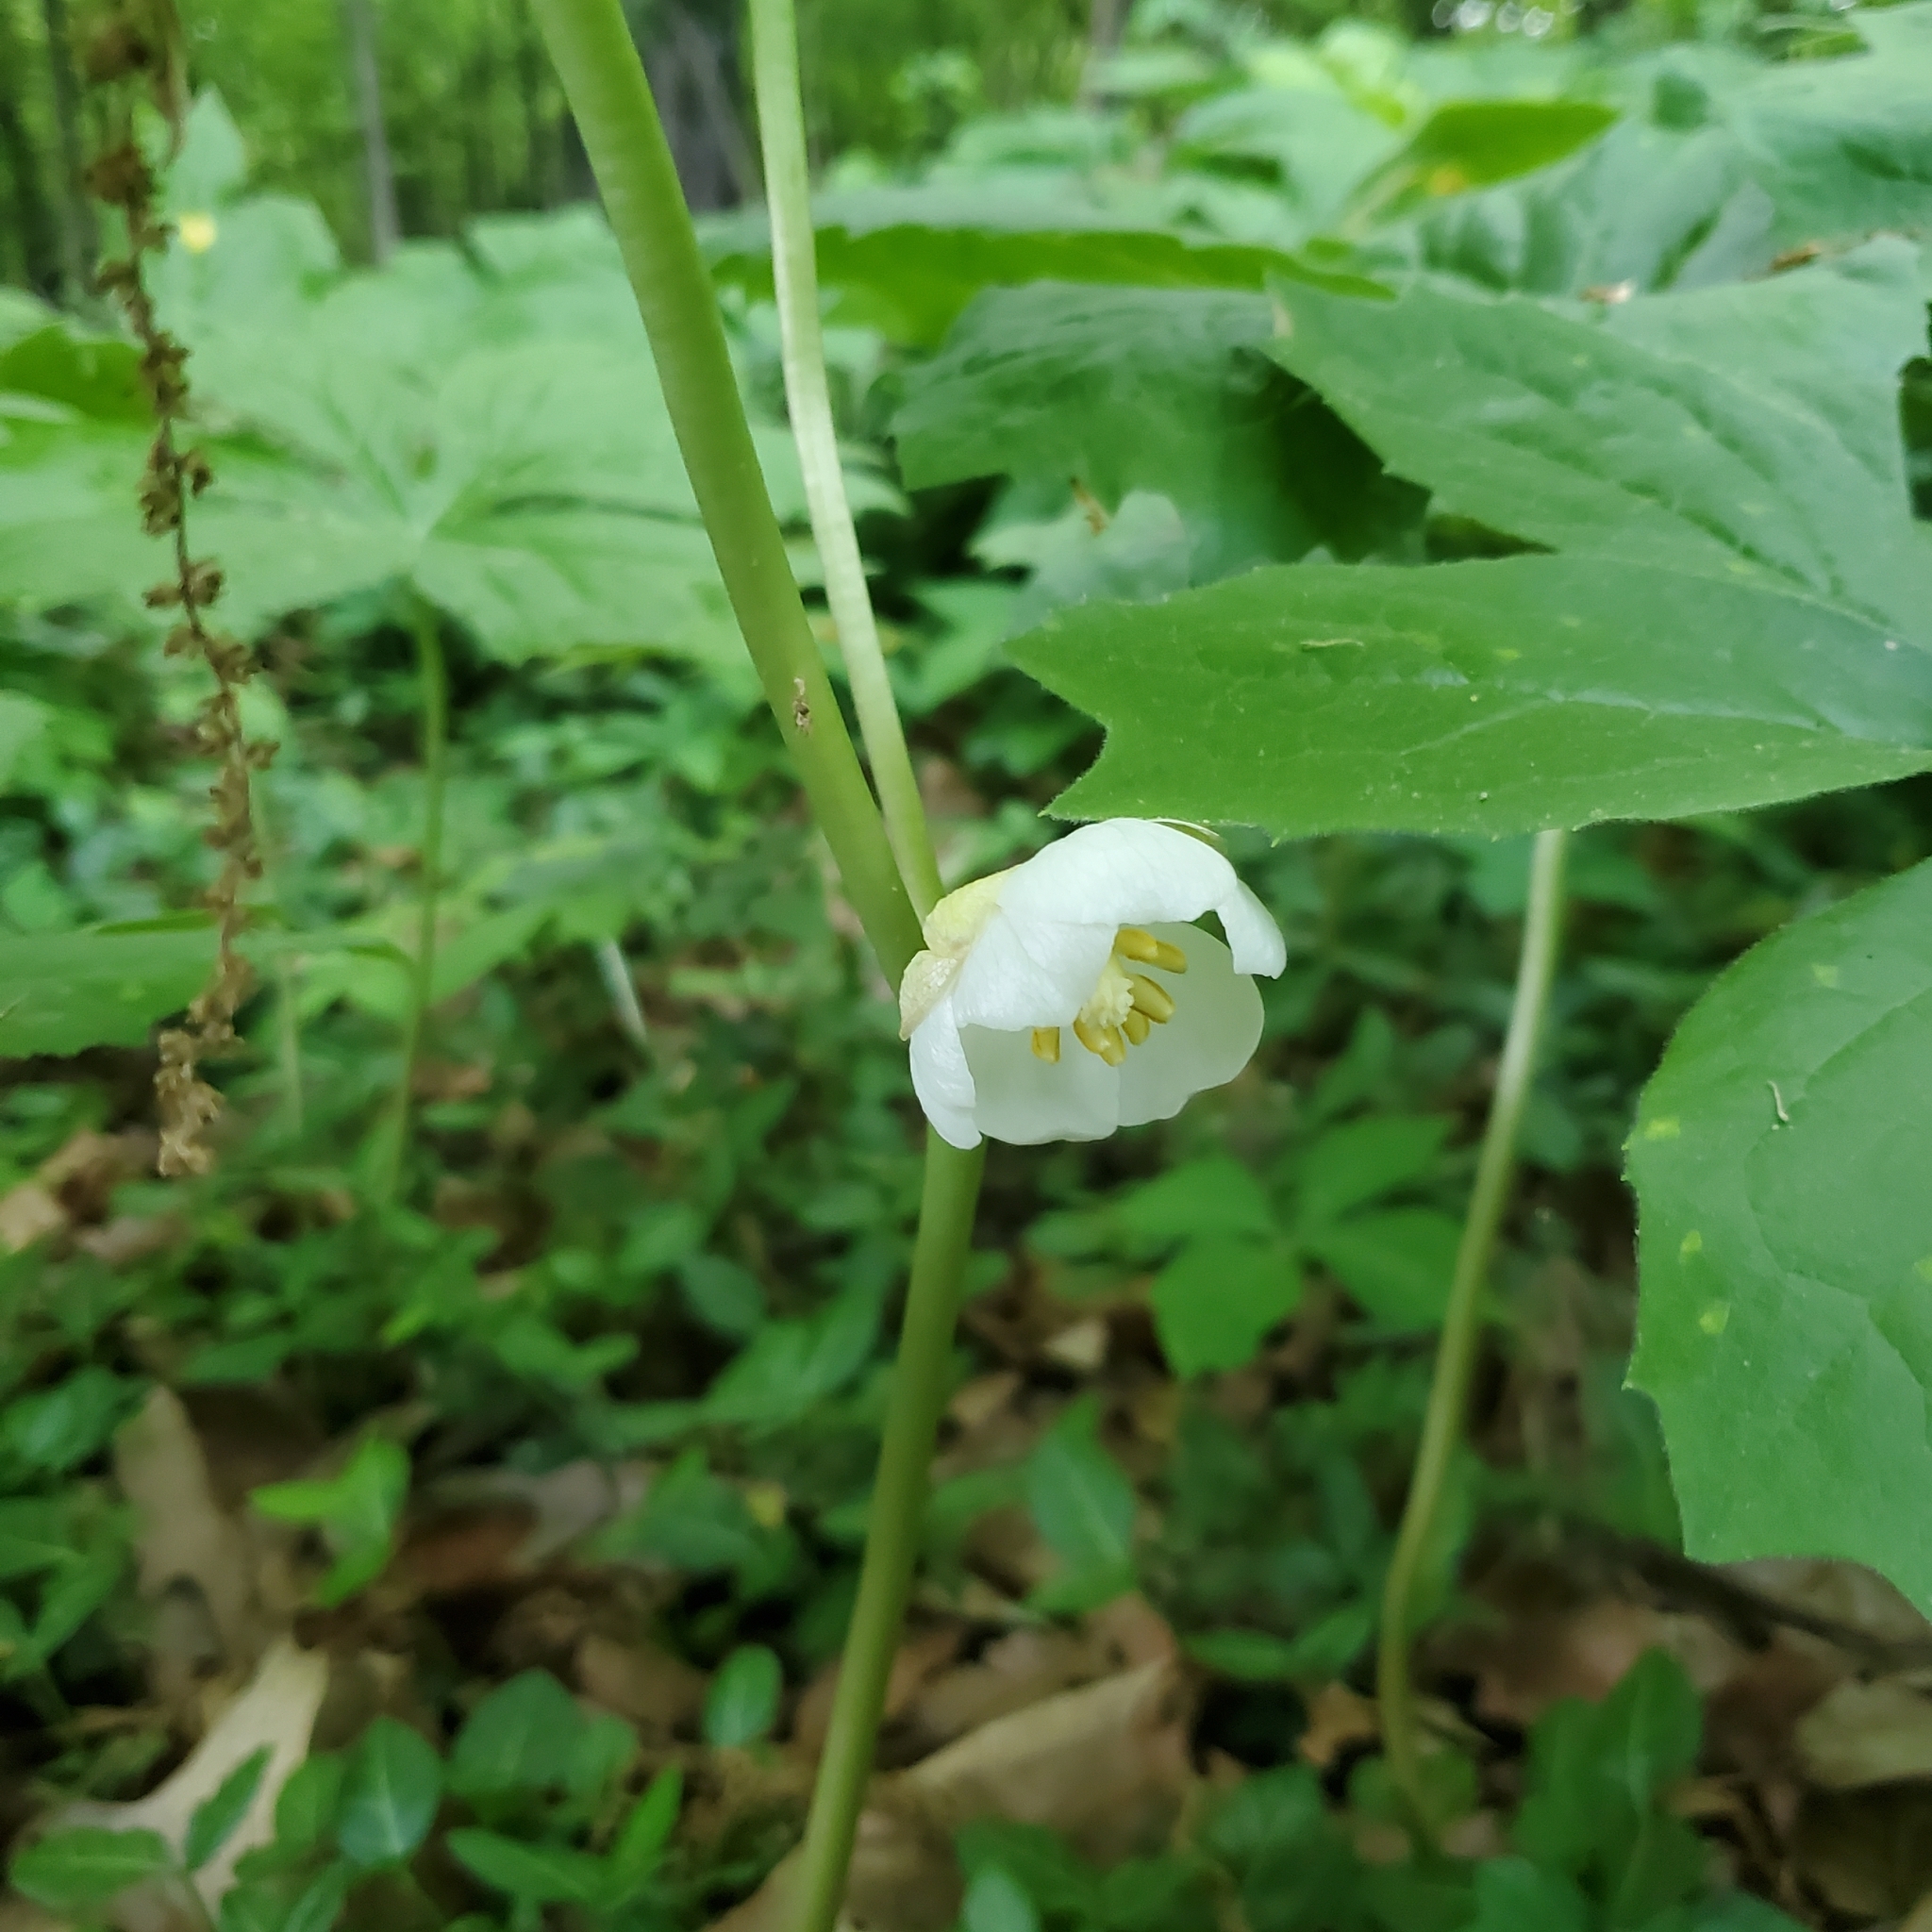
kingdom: Plantae
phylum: Tracheophyta
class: Magnoliopsida
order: Ranunculales
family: Berberidaceae
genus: Podophyllum
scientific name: Podophyllum peltatum
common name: Wild mandrake
